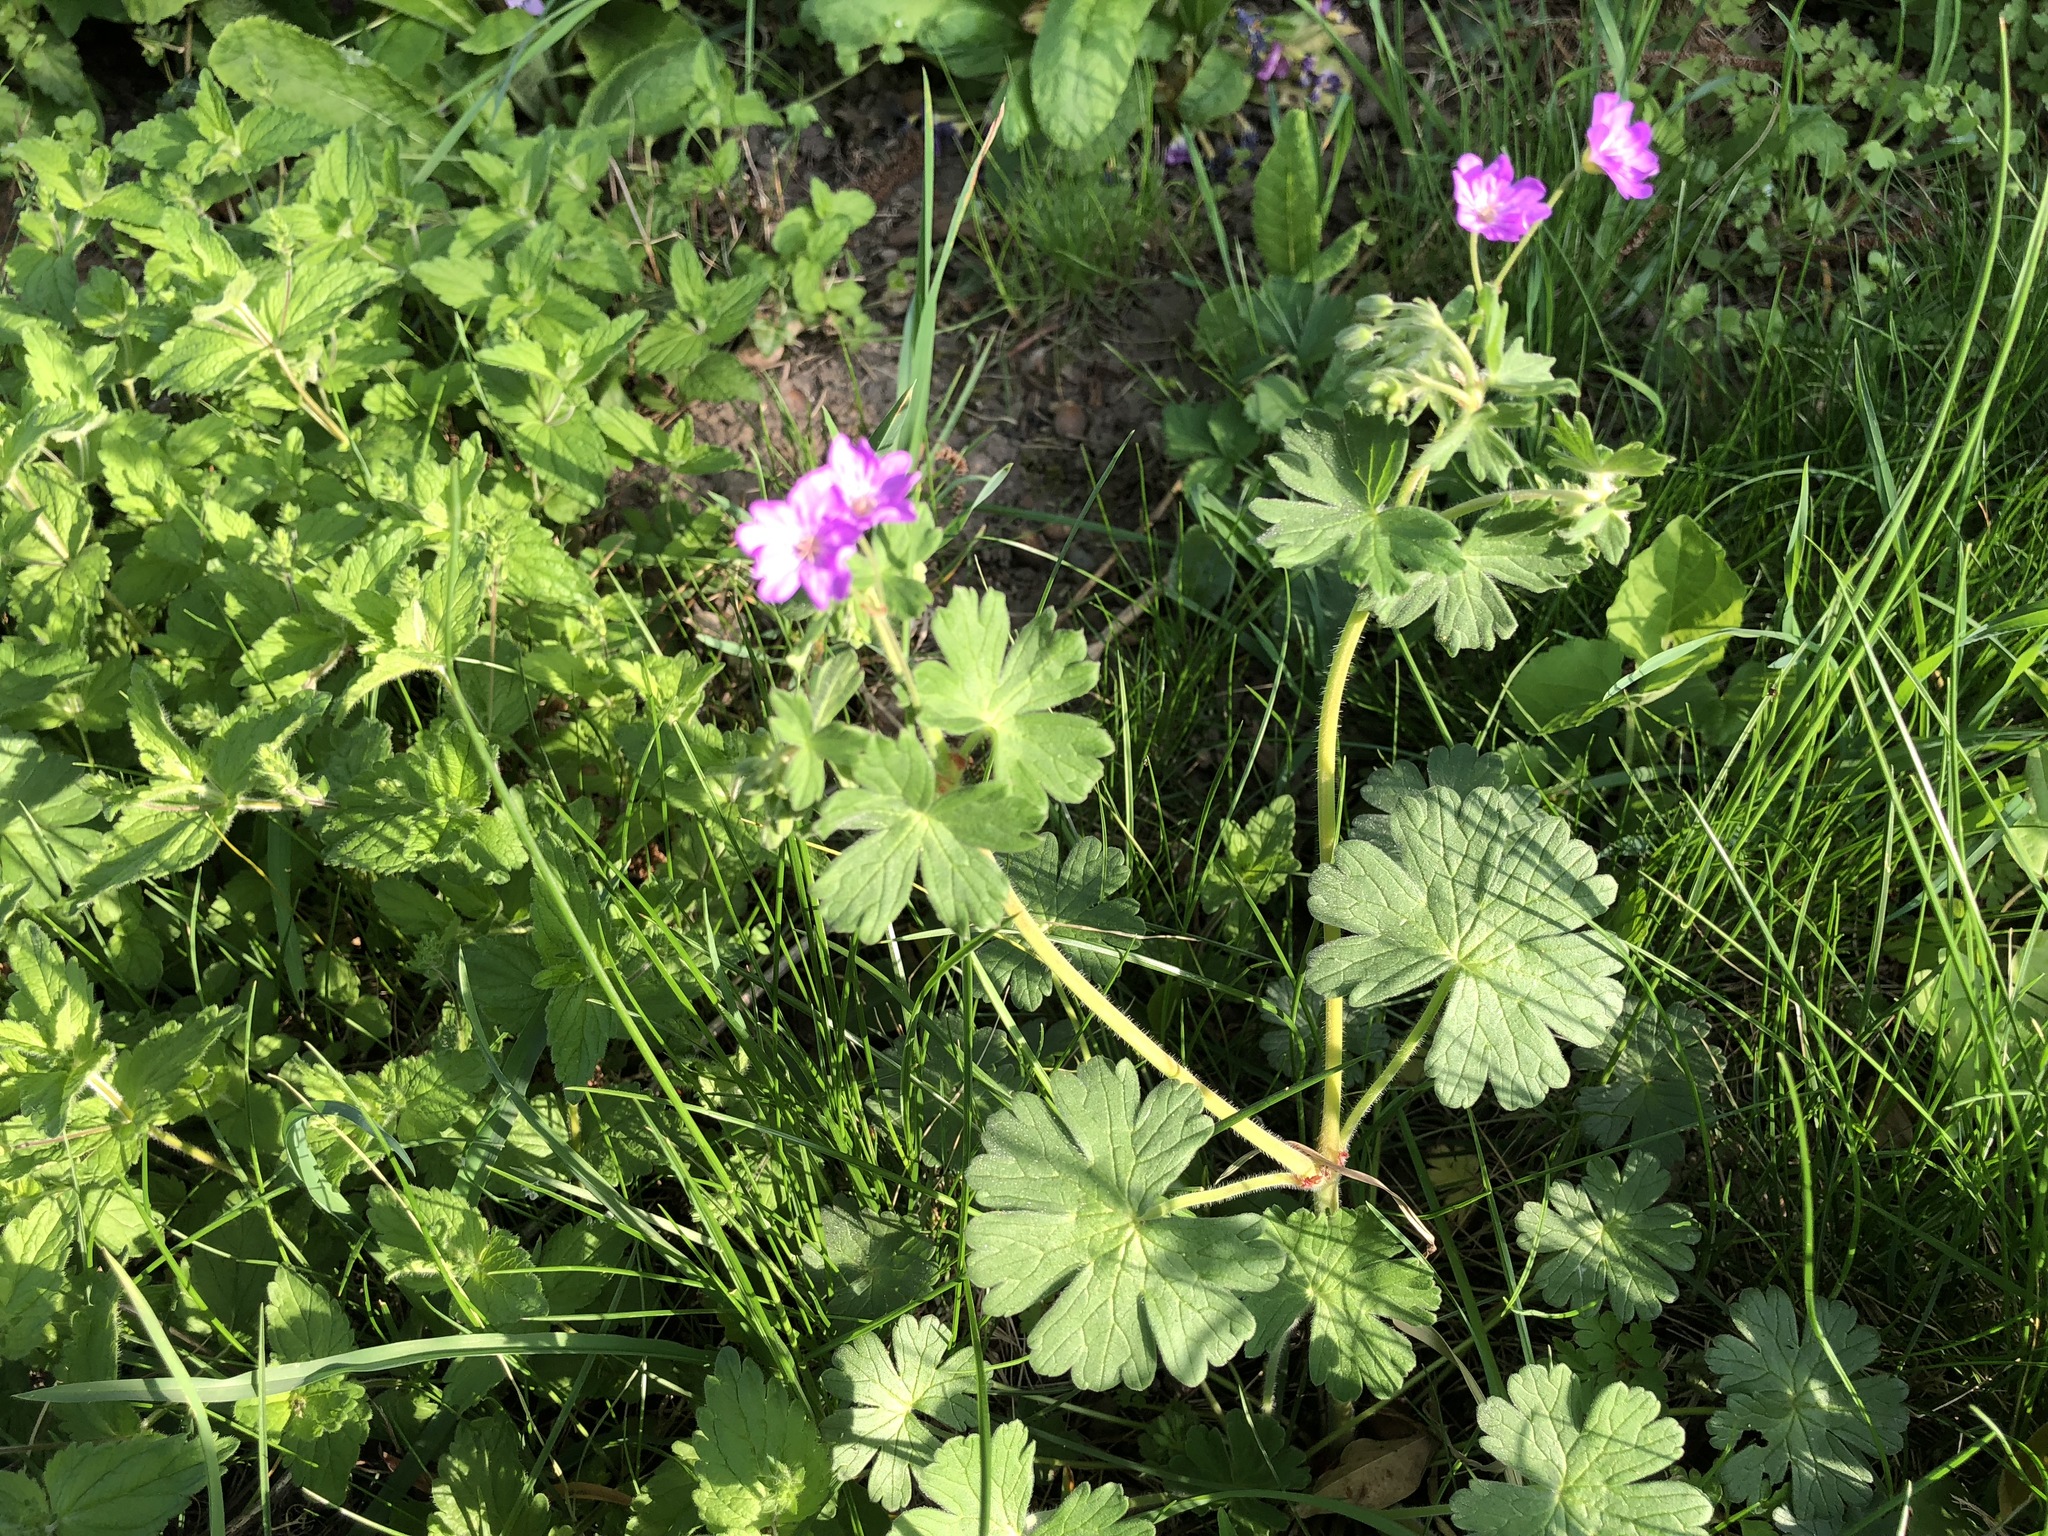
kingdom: Plantae
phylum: Tracheophyta
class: Magnoliopsida
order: Geraniales
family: Geraniaceae
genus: Geranium
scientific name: Geranium pyrenaicum
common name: Hedgerow crane's-bill
